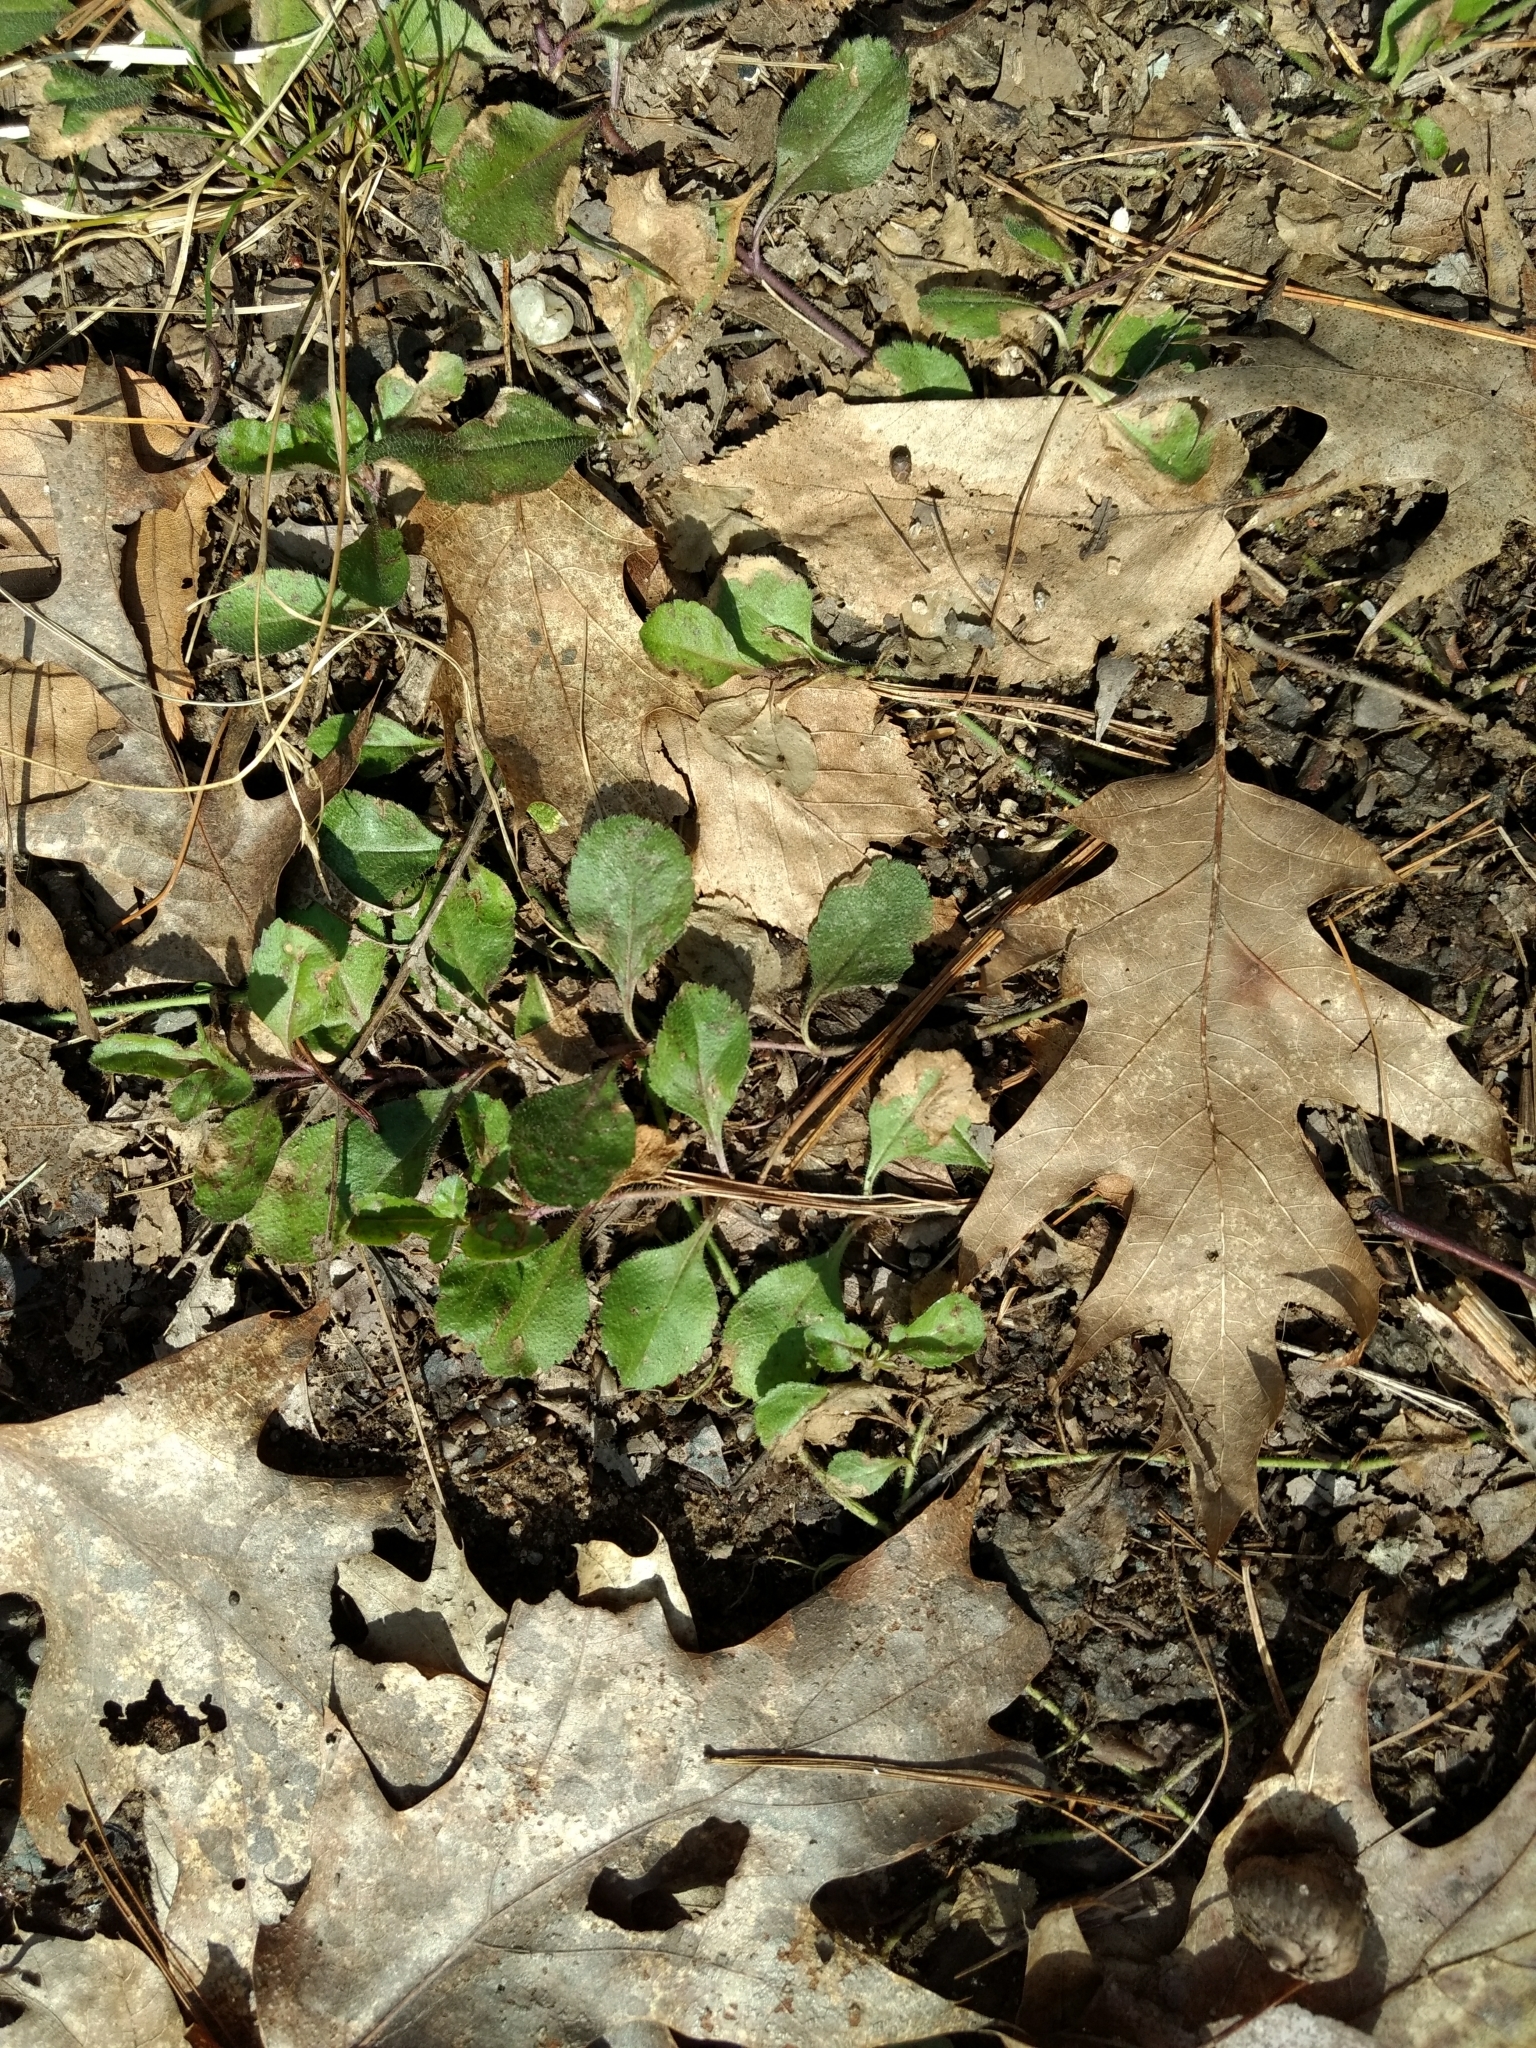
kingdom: Plantae
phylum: Tracheophyta
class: Magnoliopsida
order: Lamiales
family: Plantaginaceae
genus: Veronica
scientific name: Veronica officinalis
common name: Common speedwell
